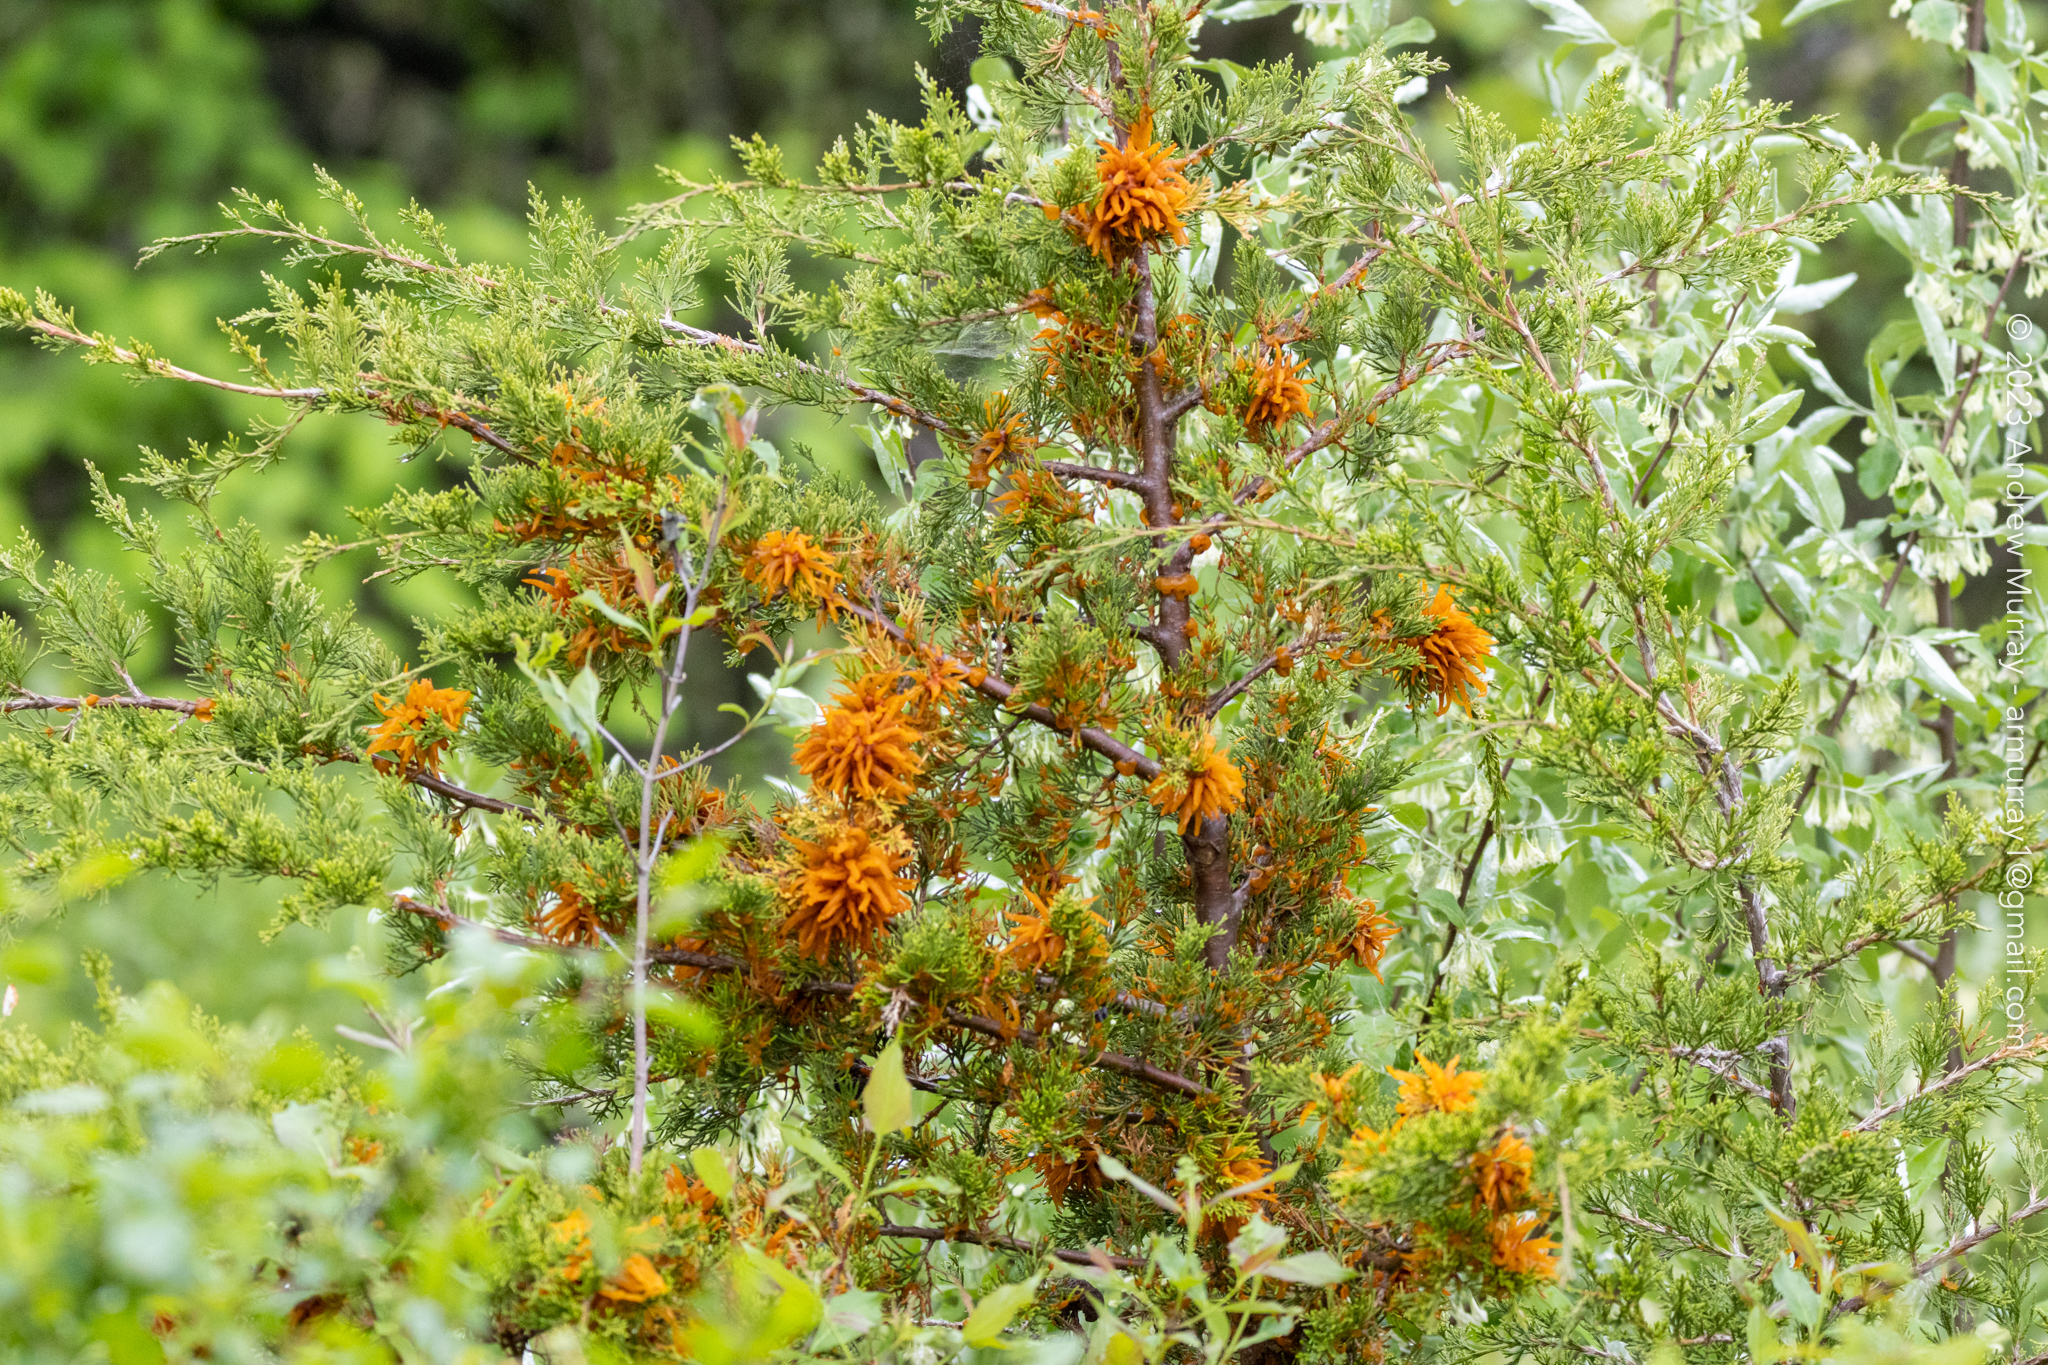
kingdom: Fungi
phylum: Basidiomycota
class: Pucciniomycetes
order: Pucciniales
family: Gymnosporangiaceae
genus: Gymnosporangium
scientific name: Gymnosporangium juniperi-virginianae
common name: Juniper-apple rust
